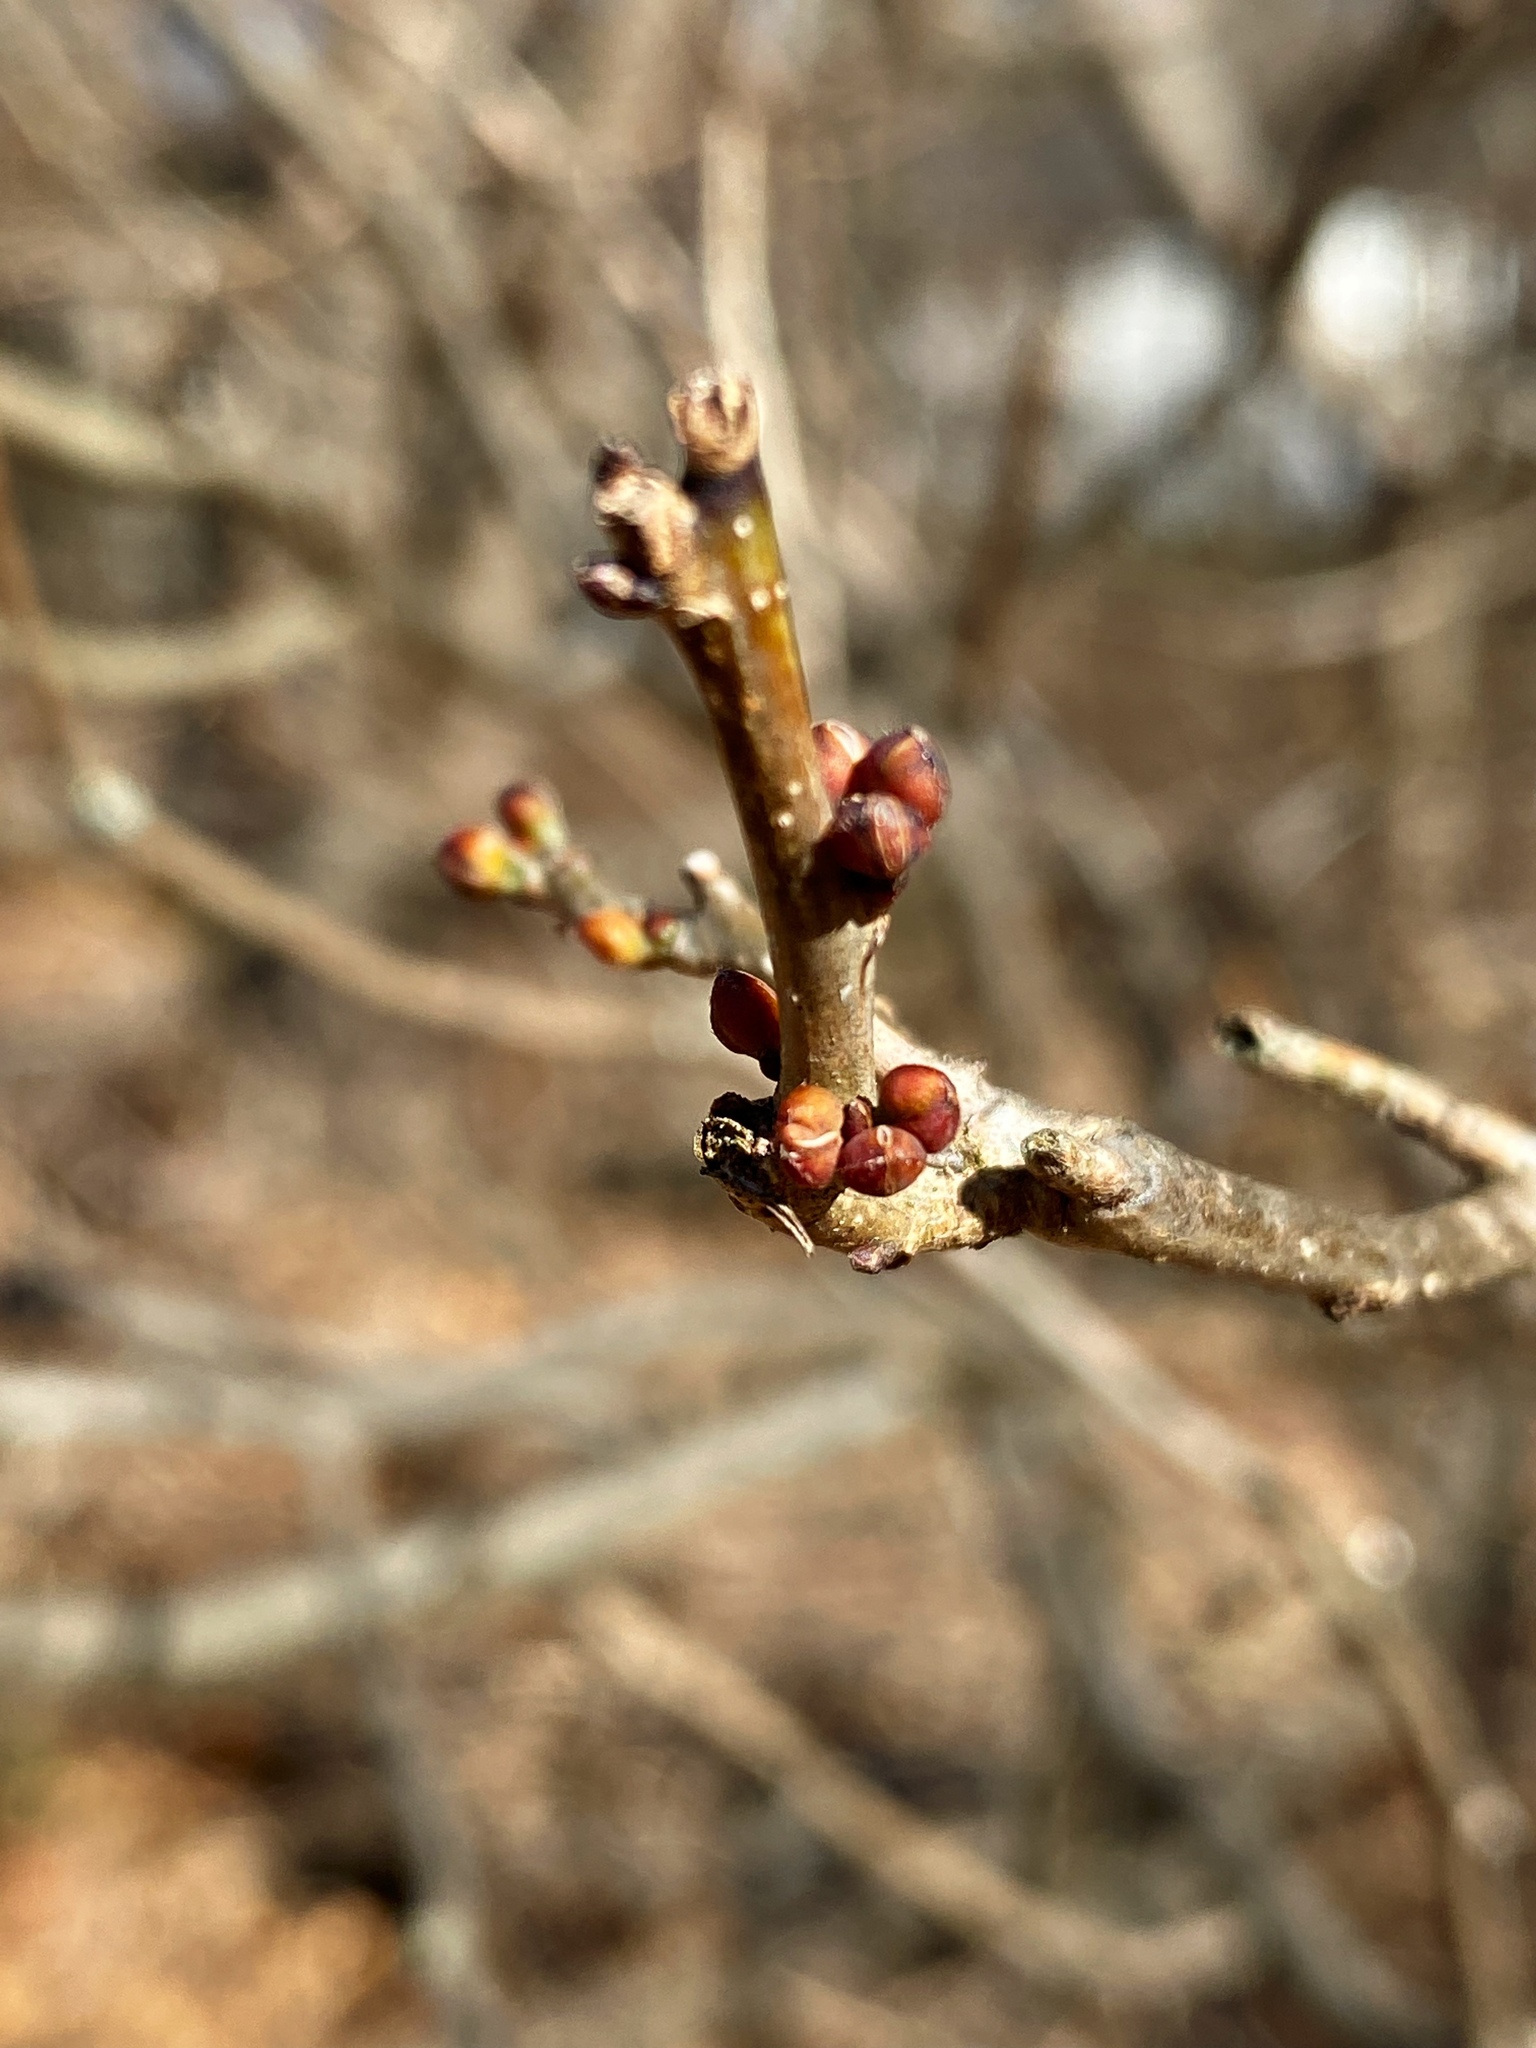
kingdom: Plantae
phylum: Tracheophyta
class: Magnoliopsida
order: Laurales
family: Lauraceae
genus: Lindera
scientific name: Lindera benzoin
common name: Spicebush
